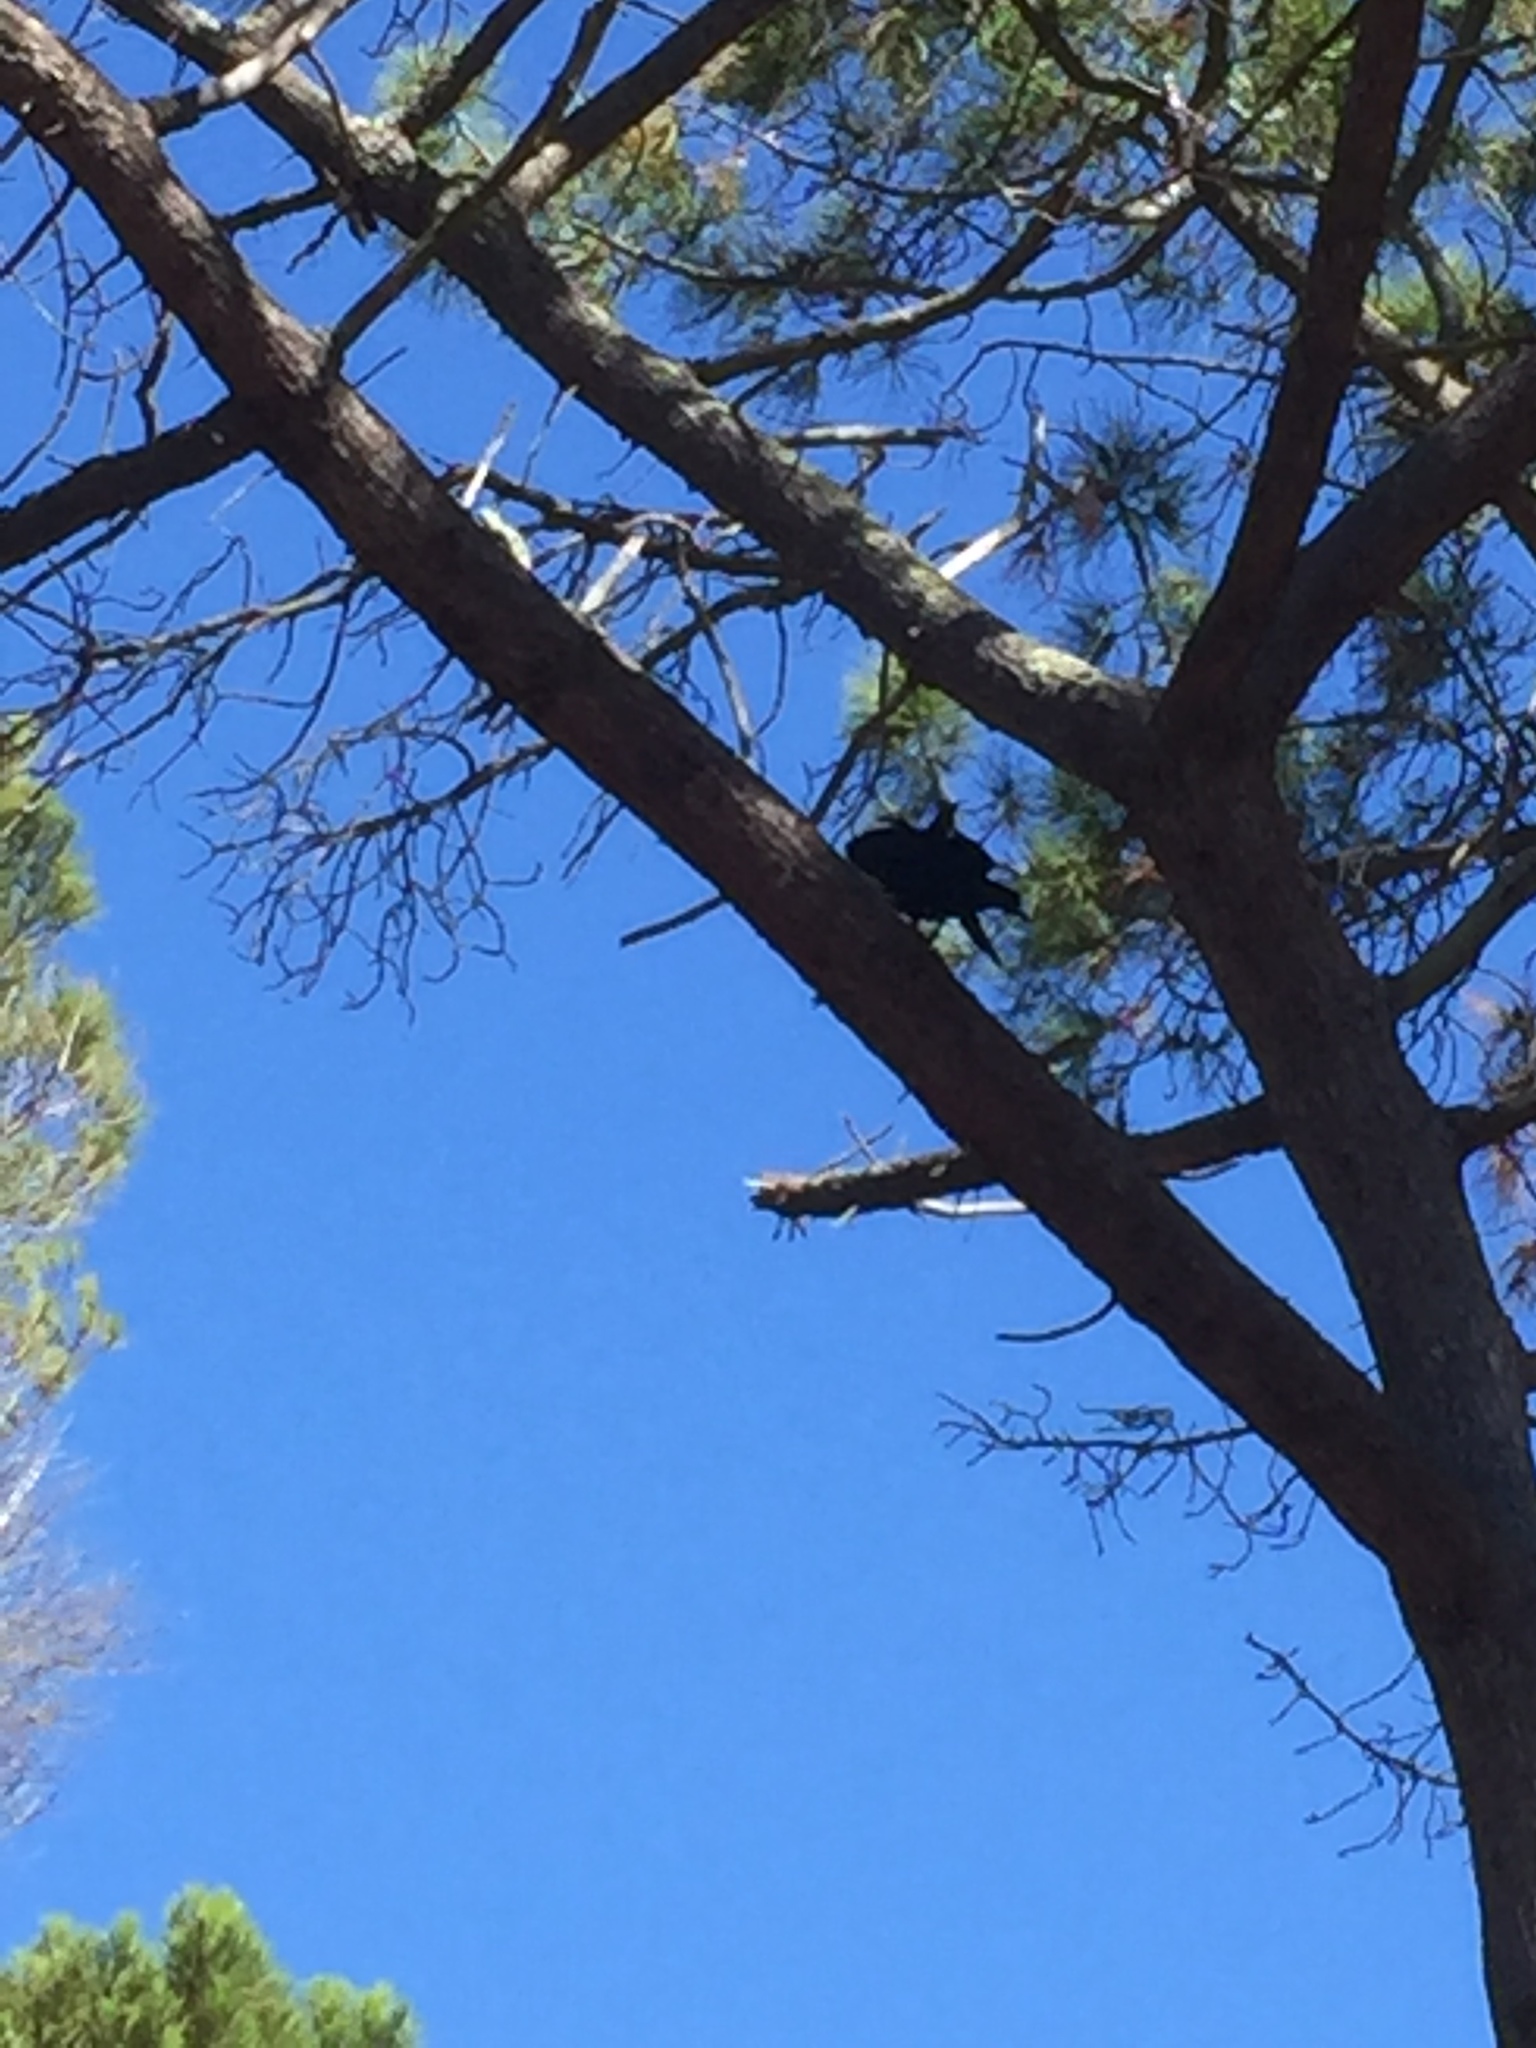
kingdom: Animalia
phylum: Chordata
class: Aves
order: Passeriformes
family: Corvidae
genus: Corvus
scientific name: Corvus albus
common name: Pied crow
